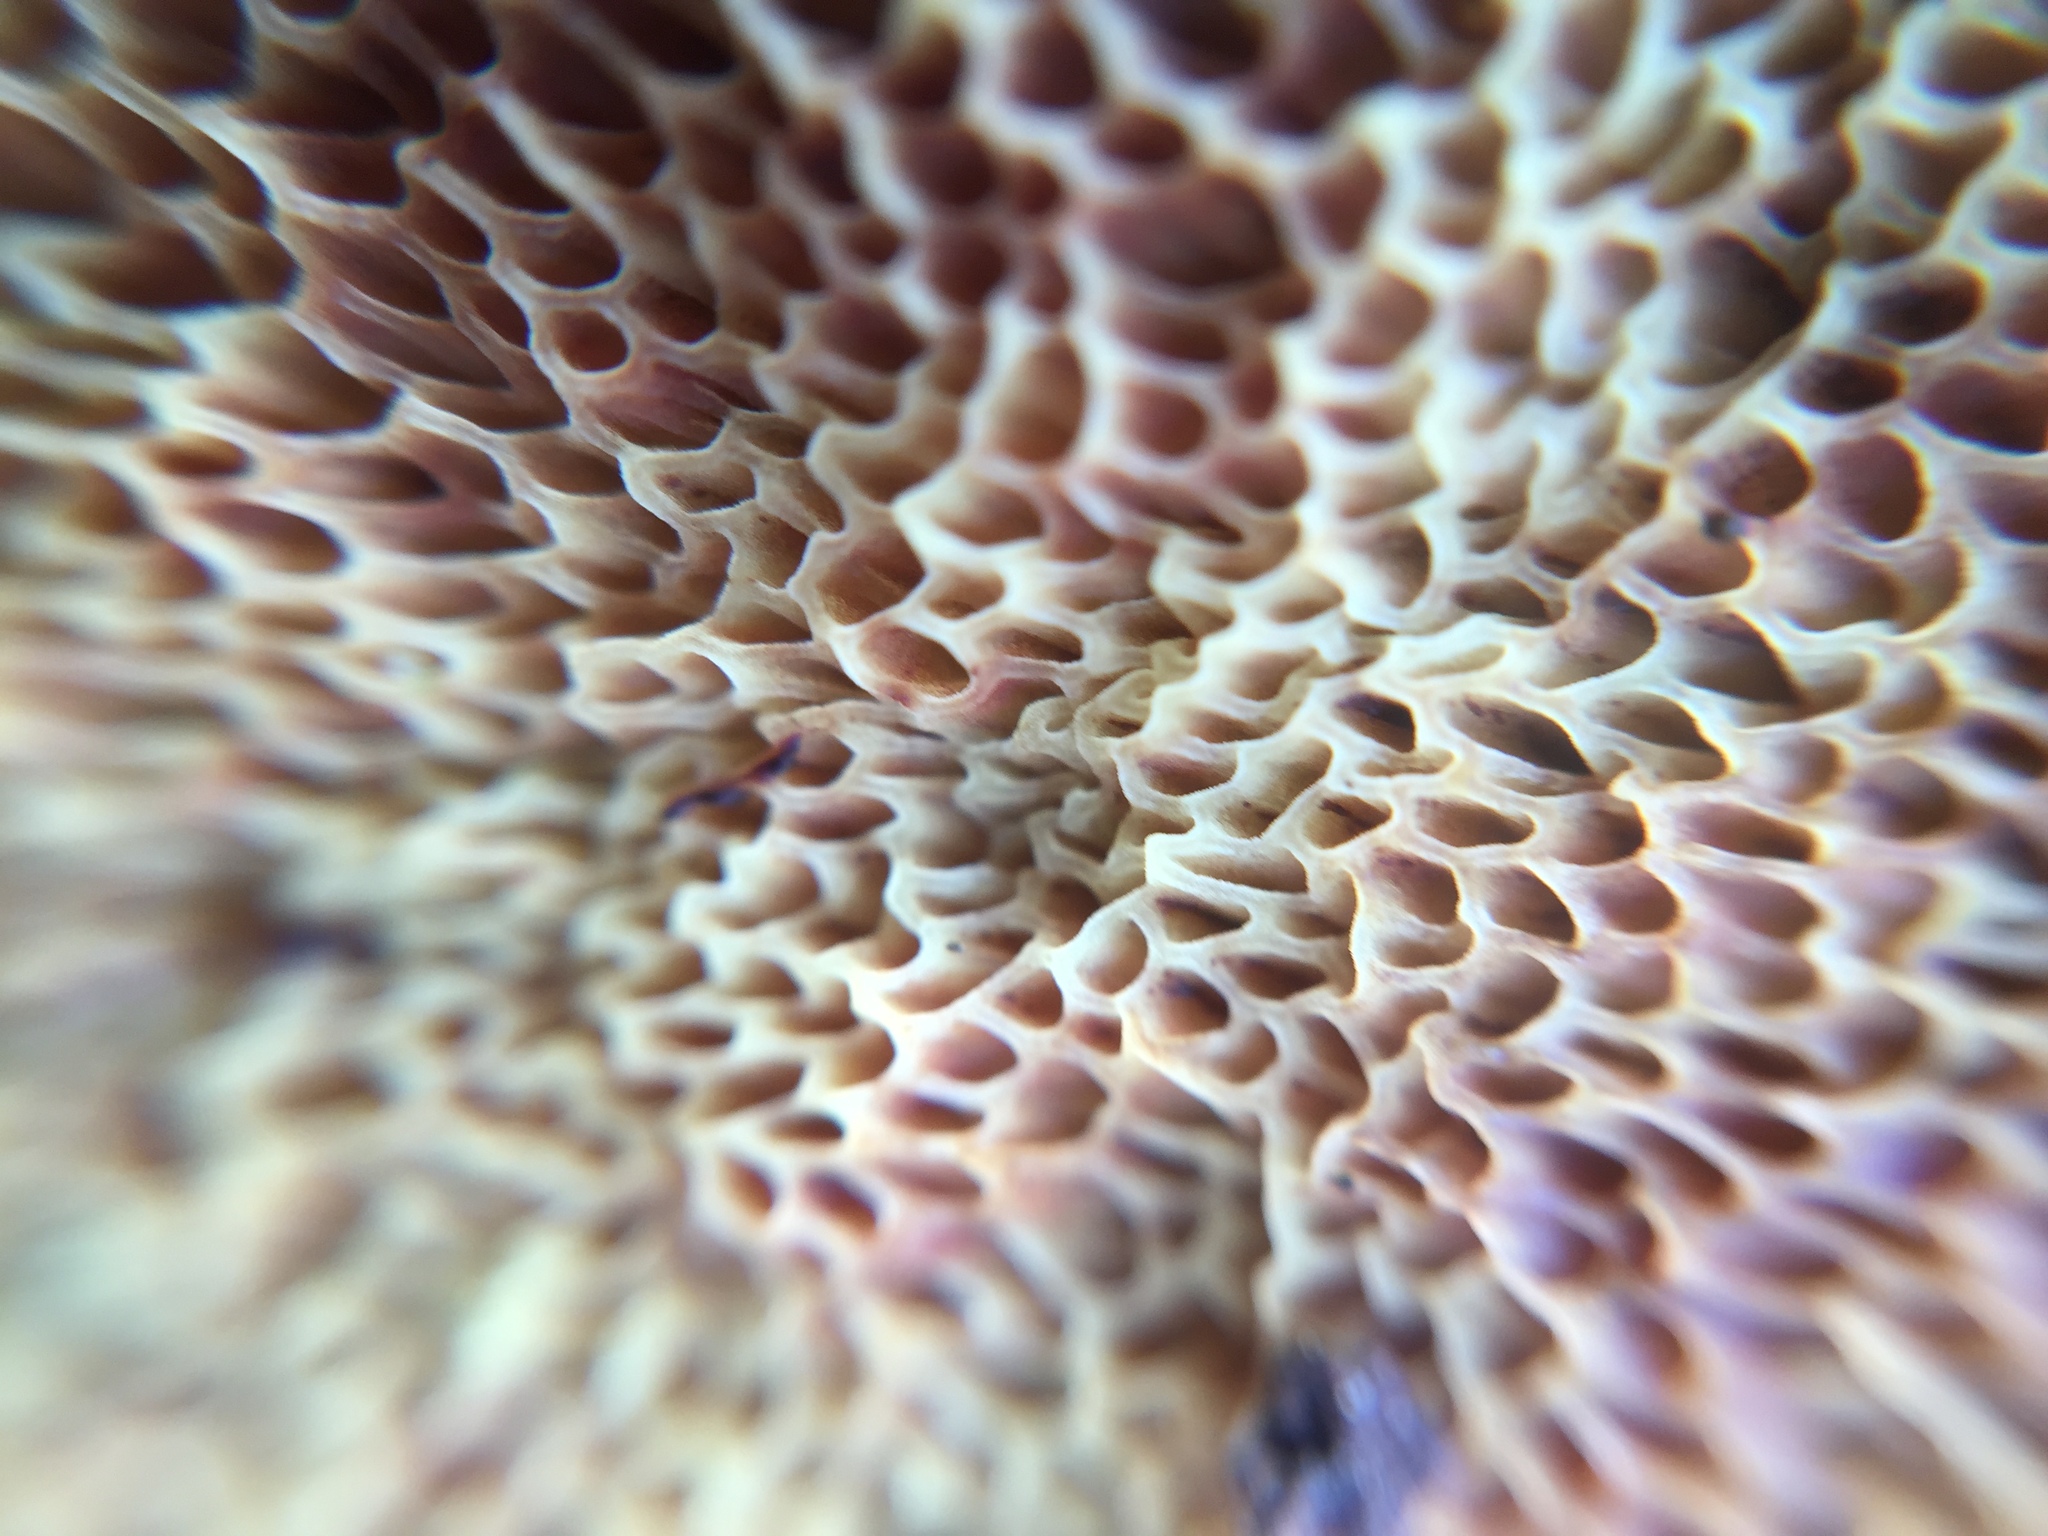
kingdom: Fungi
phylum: Basidiomycota
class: Agaricomycetes
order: Boletales
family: Boletaceae
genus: Sutorius
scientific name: Sutorius venenatus
